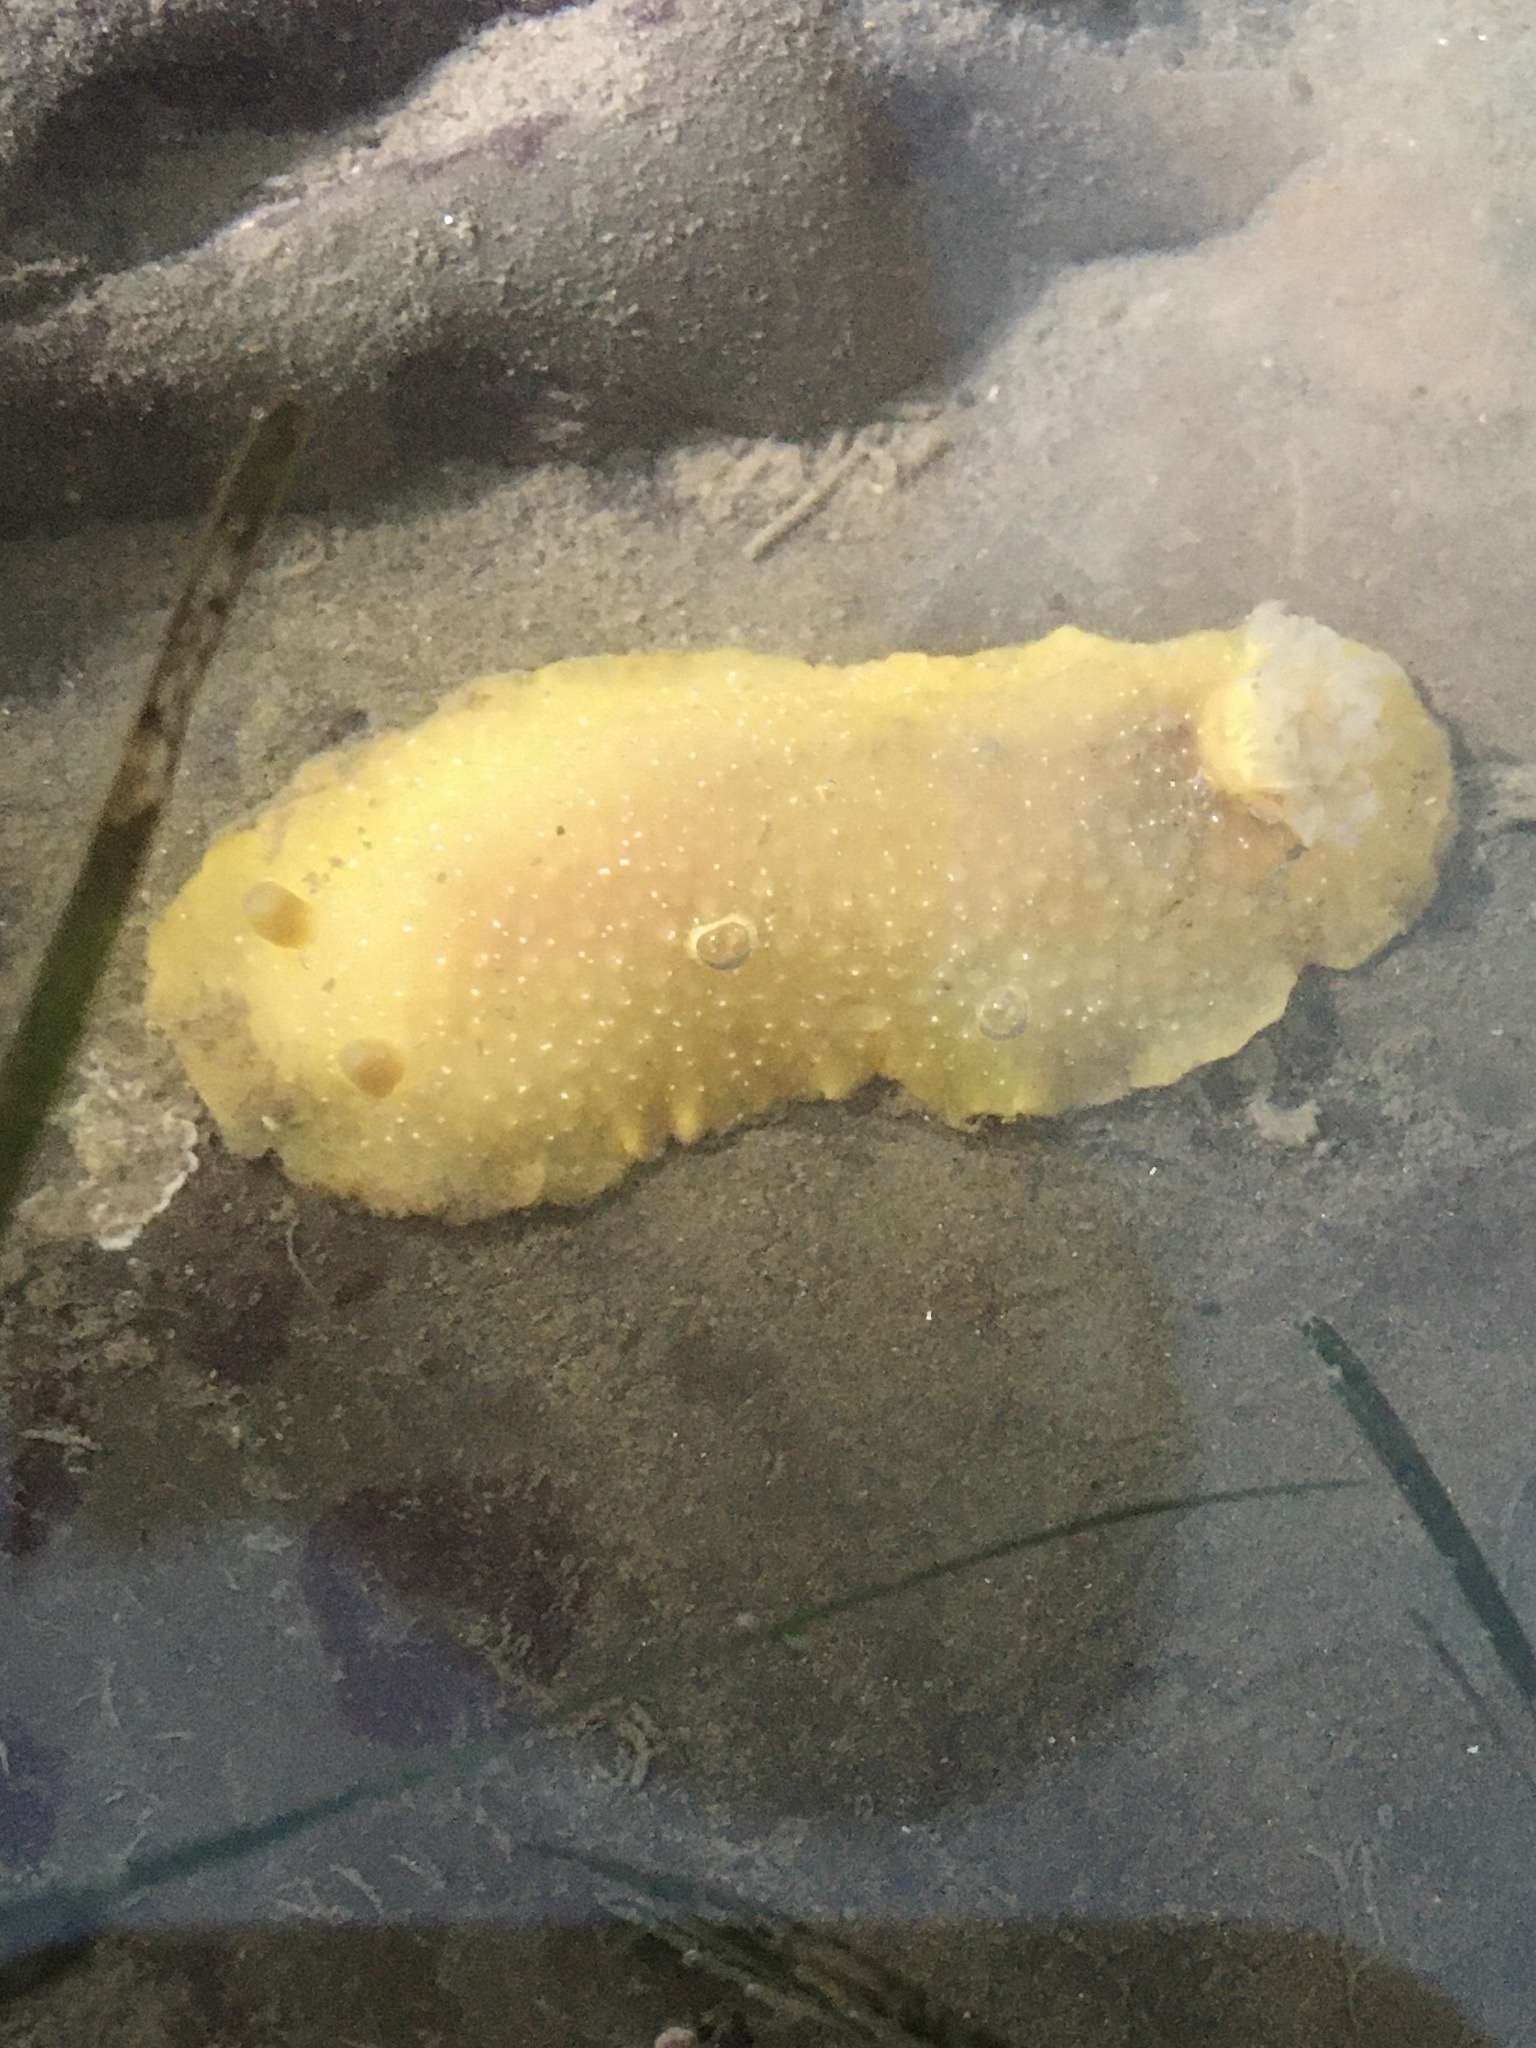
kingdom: Animalia
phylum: Mollusca
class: Gastropoda
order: Nudibranchia
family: Dendrodorididae
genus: Doriopsilla
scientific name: Doriopsilla fulva
